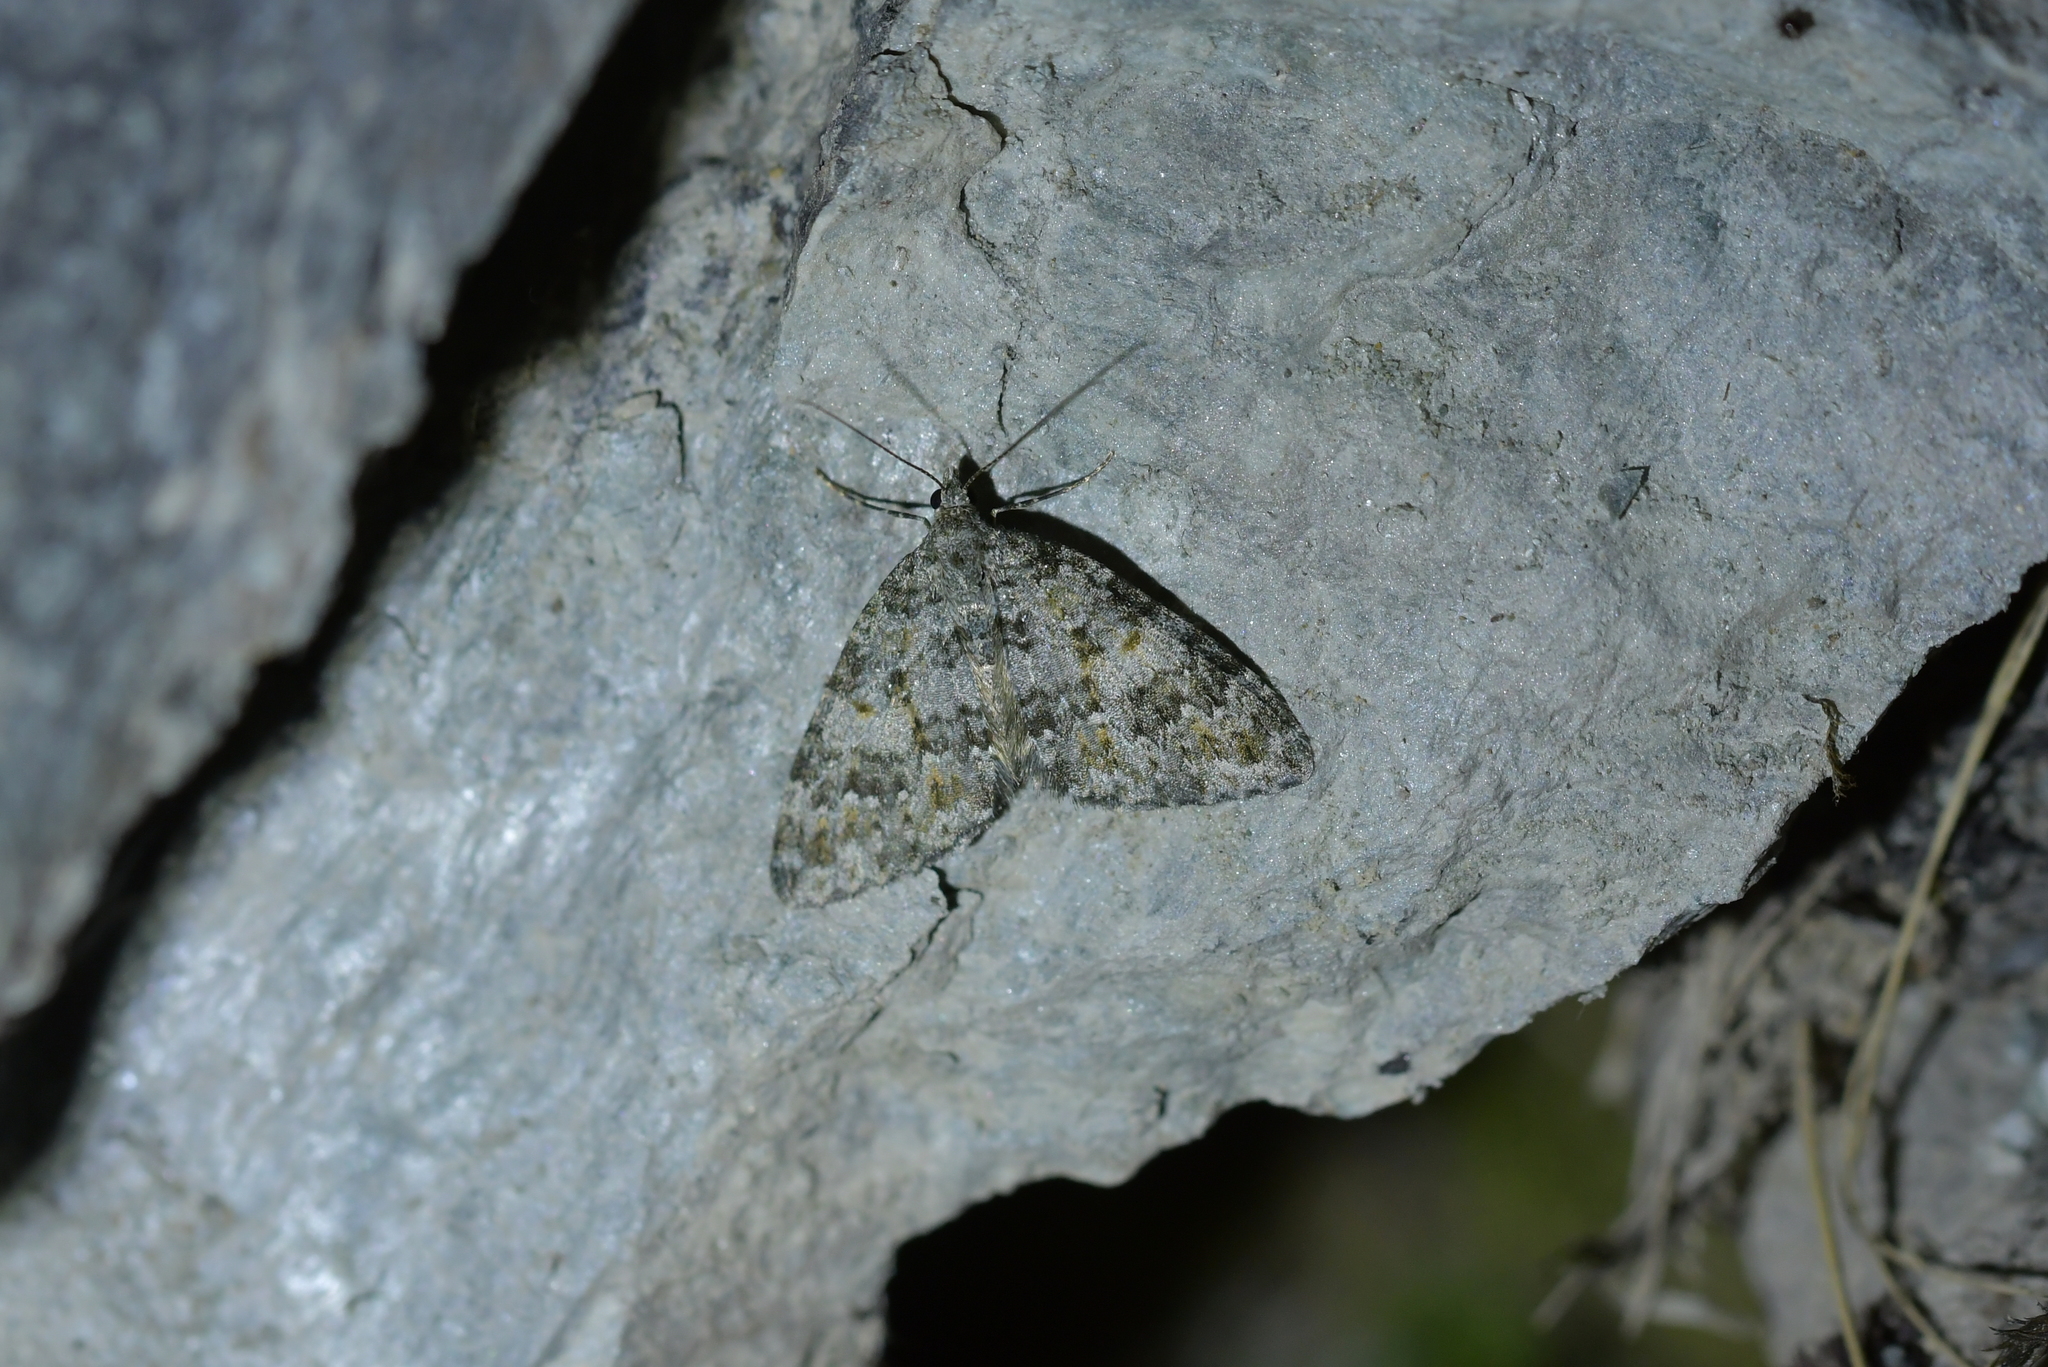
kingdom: Animalia
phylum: Arthropoda
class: Insecta
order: Lepidoptera
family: Geometridae
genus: Helastia
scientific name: Helastia plumbea
